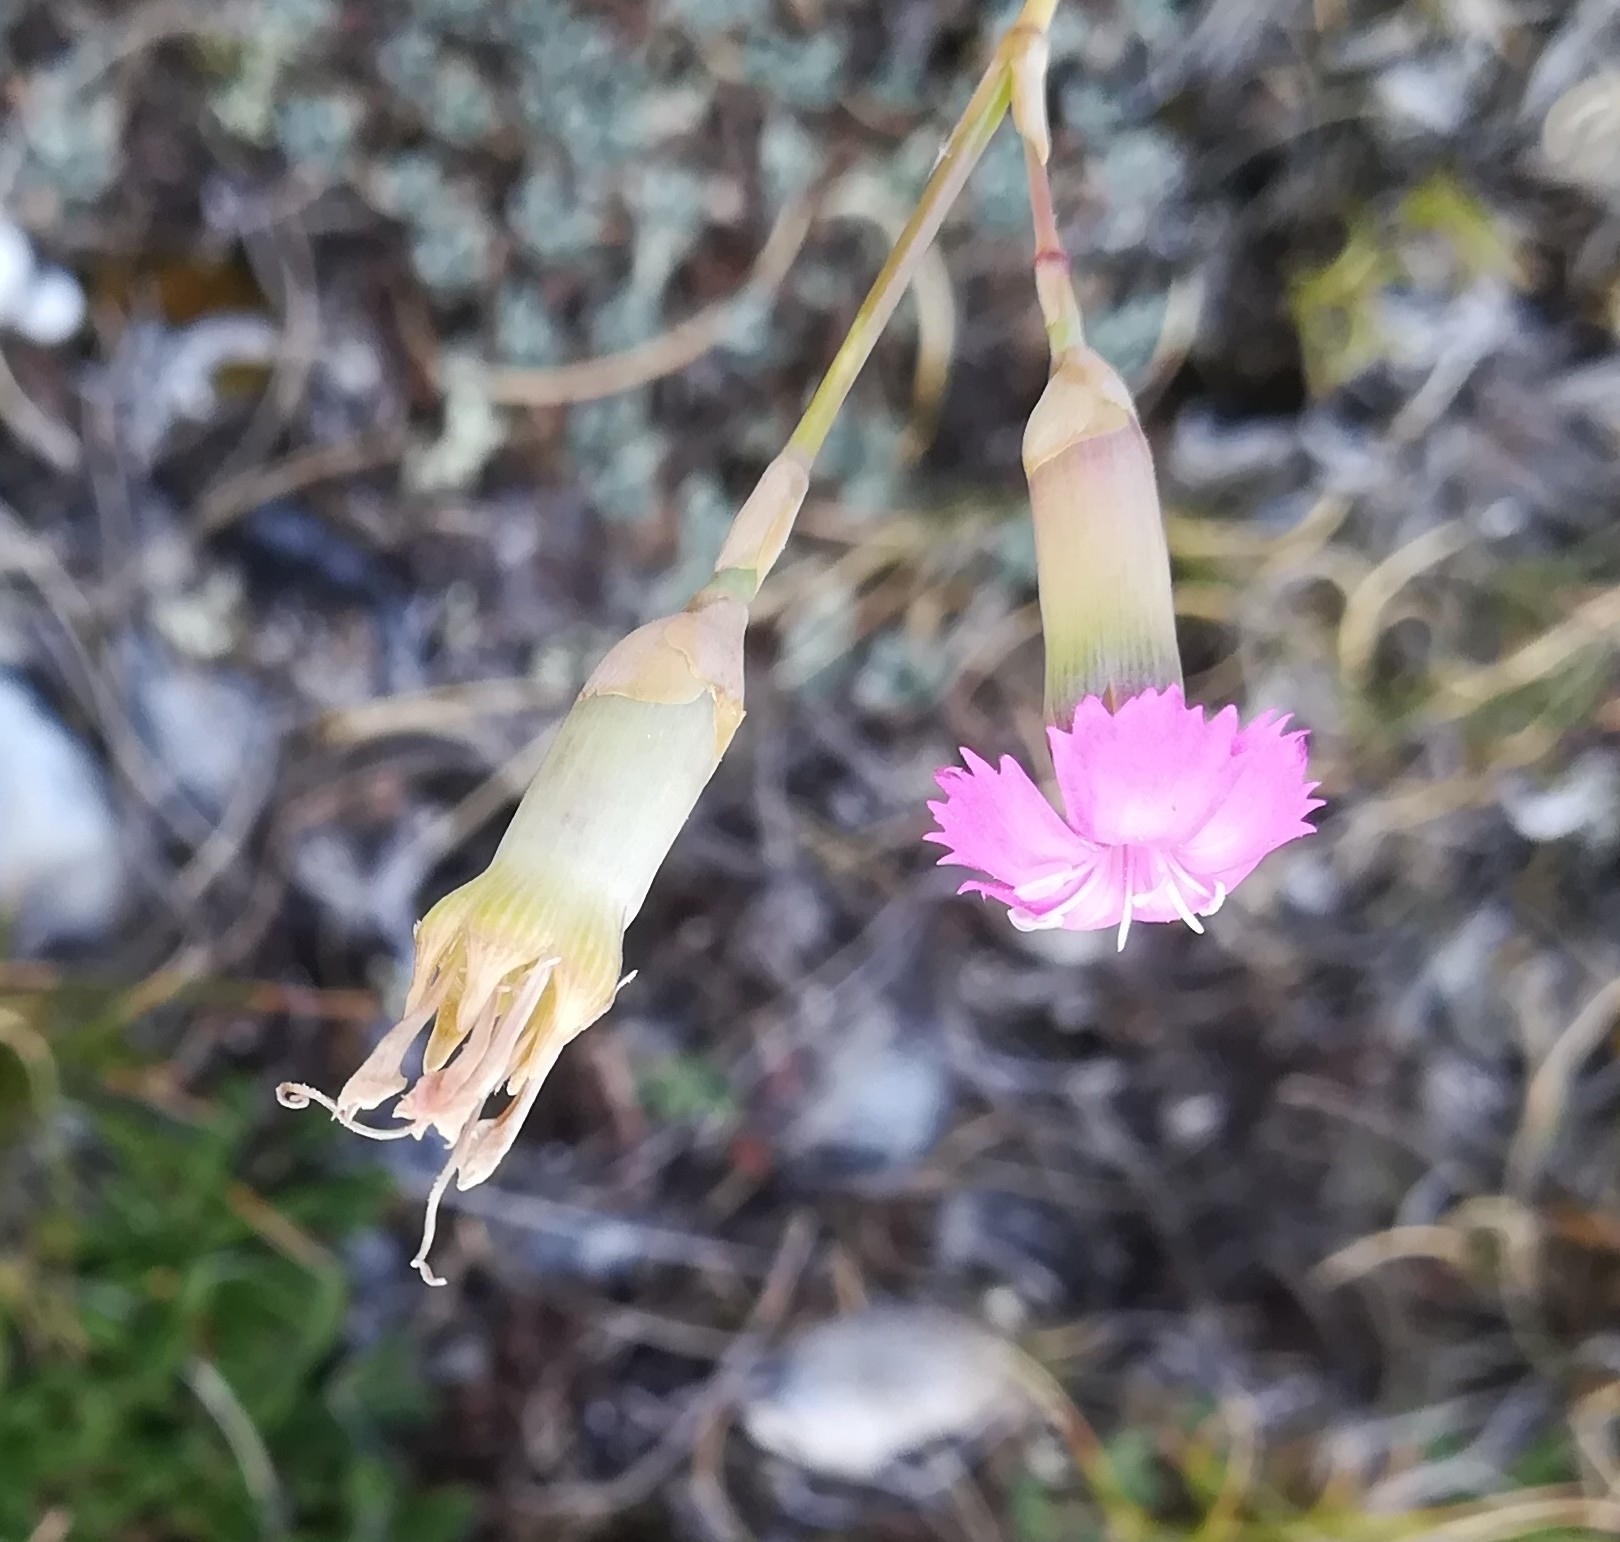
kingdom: Plantae
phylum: Tracheophyta
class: Magnoliopsida
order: Caryophyllales
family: Caryophyllaceae
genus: Dianthus
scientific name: Dianthus brachycalyx
